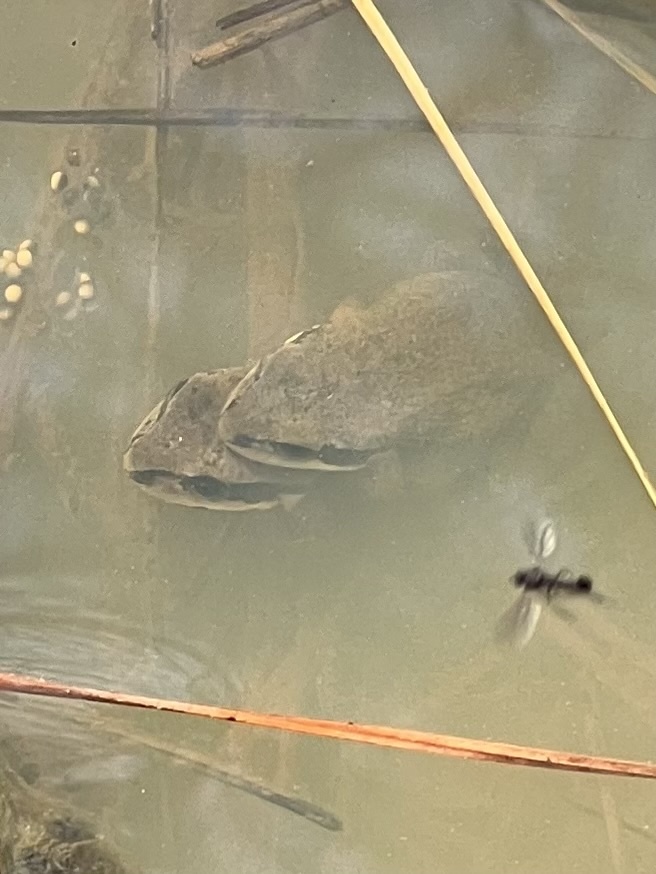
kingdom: Animalia
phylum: Chordata
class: Amphibia
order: Anura
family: Hylidae
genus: Pseudacris
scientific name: Pseudacris feriarum
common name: Upland chorus frog
